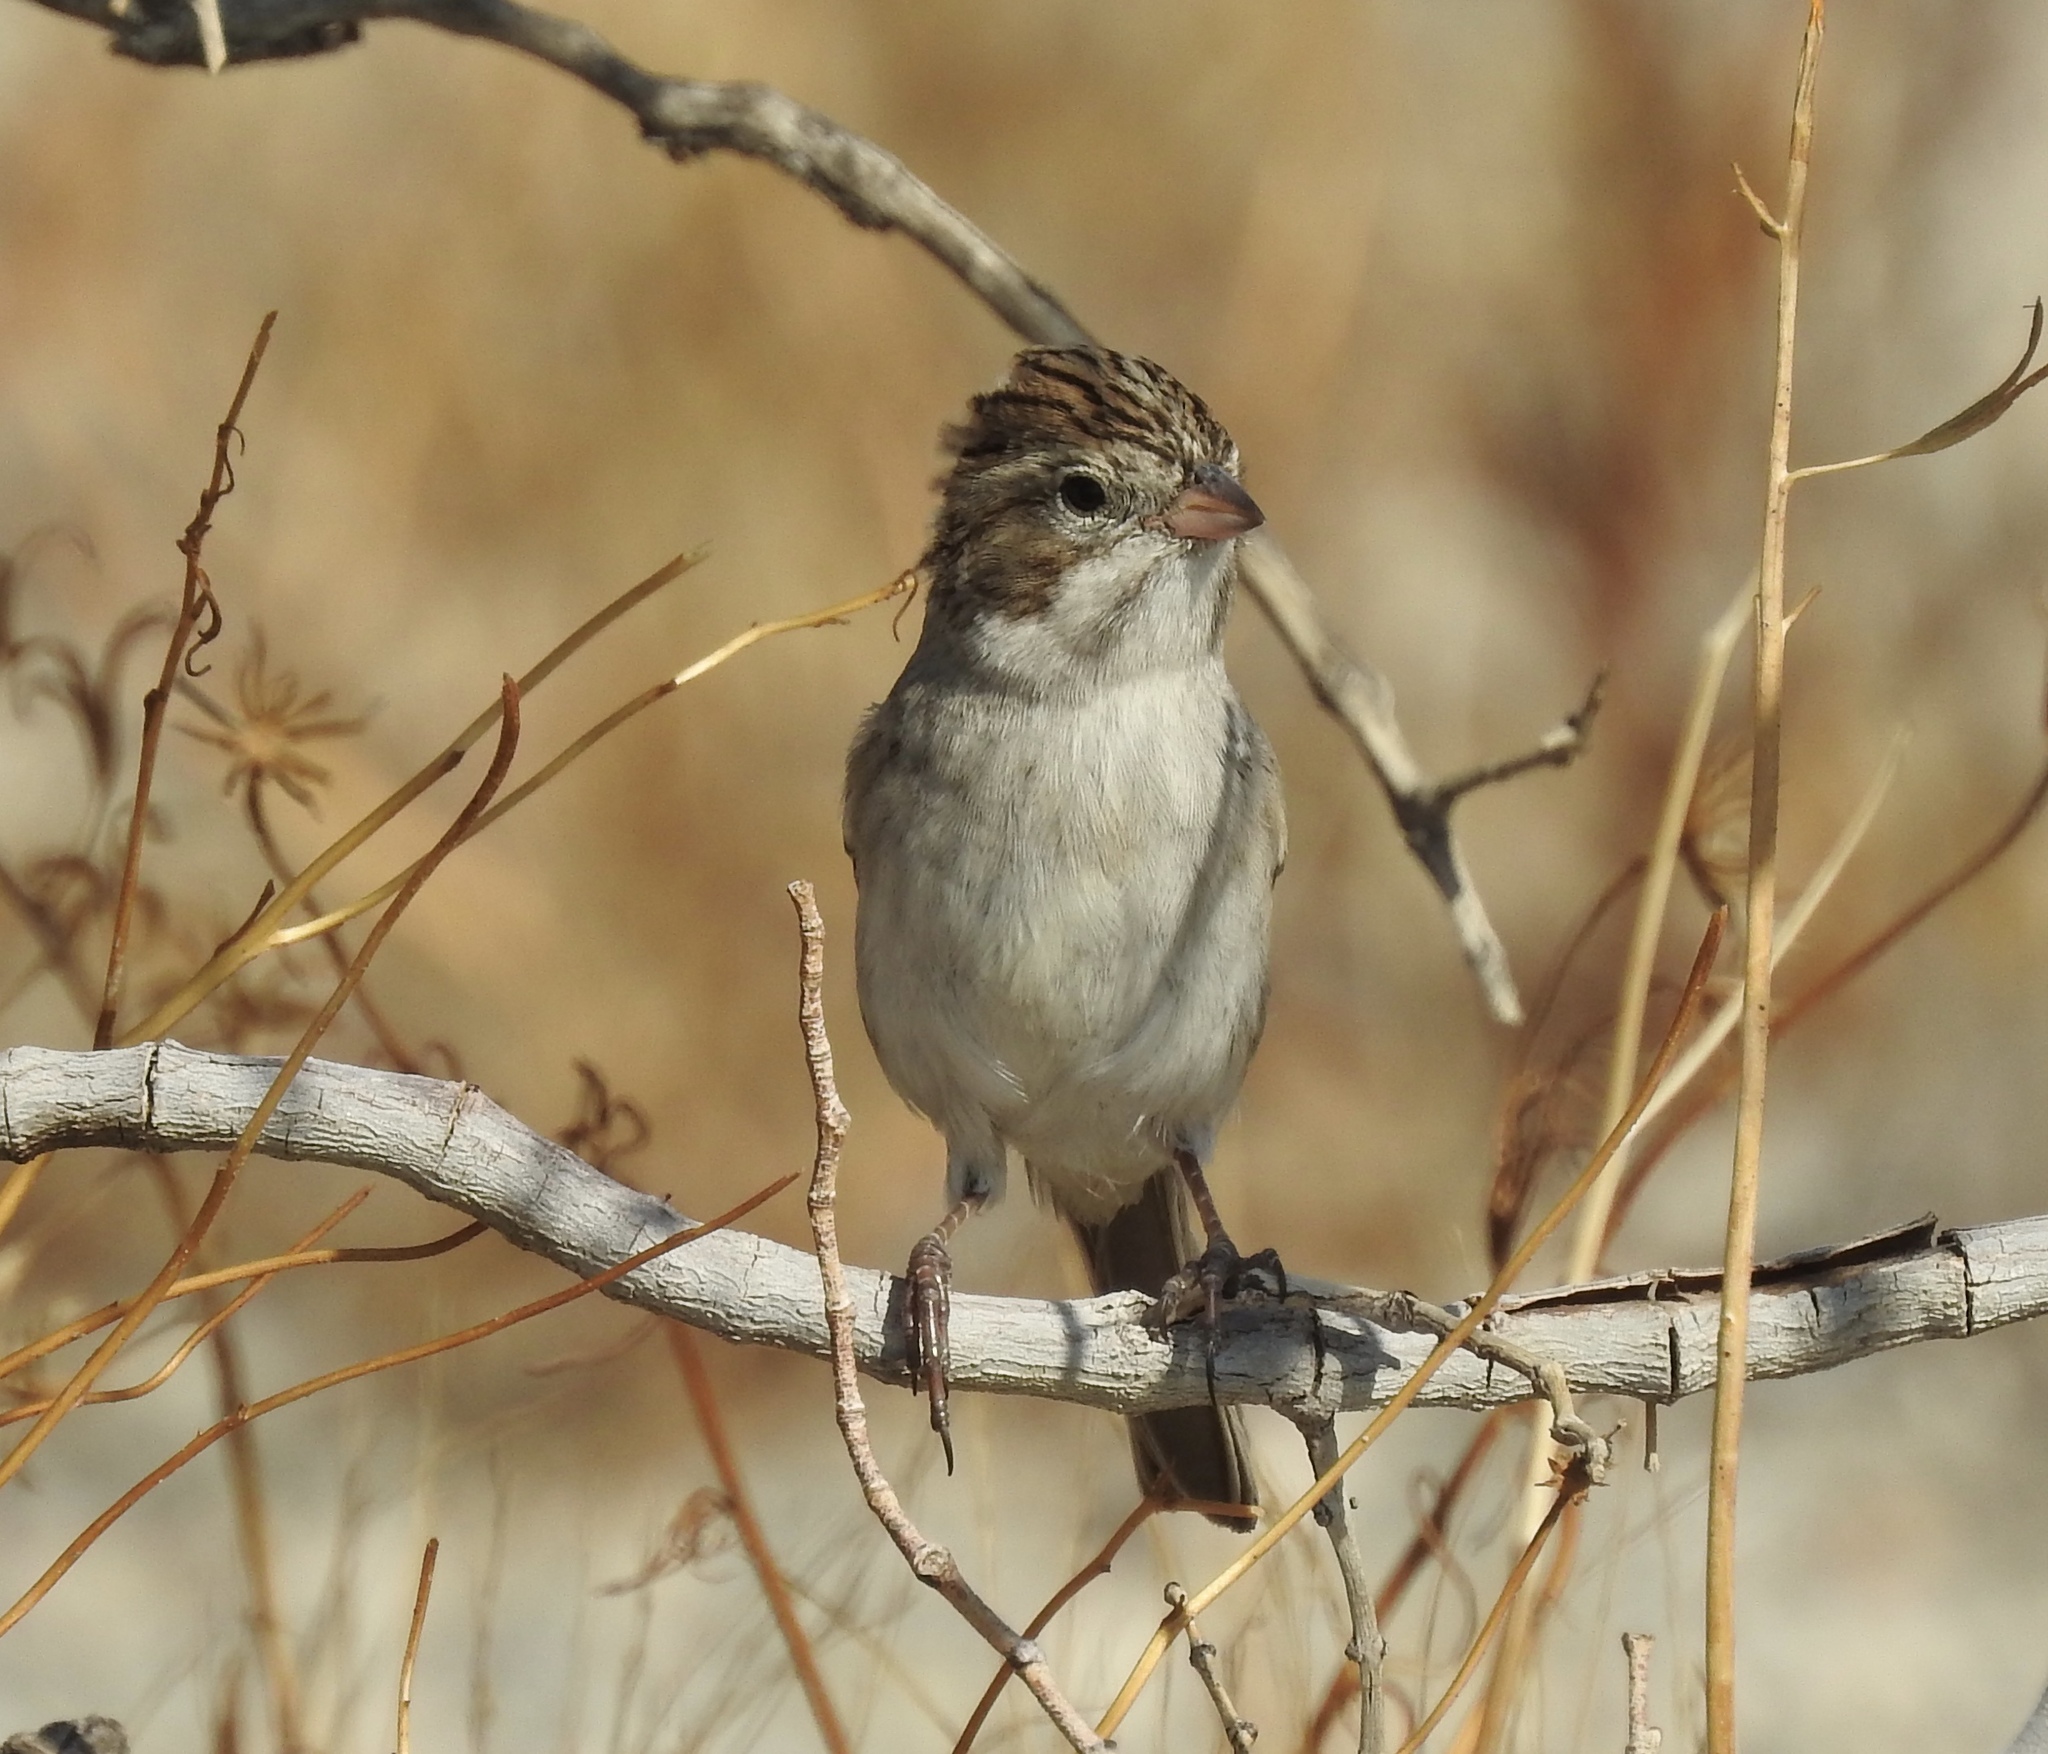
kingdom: Animalia
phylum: Chordata
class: Aves
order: Passeriformes
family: Passerellidae
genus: Spizella
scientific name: Spizella breweri
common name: Brewer's sparrow
